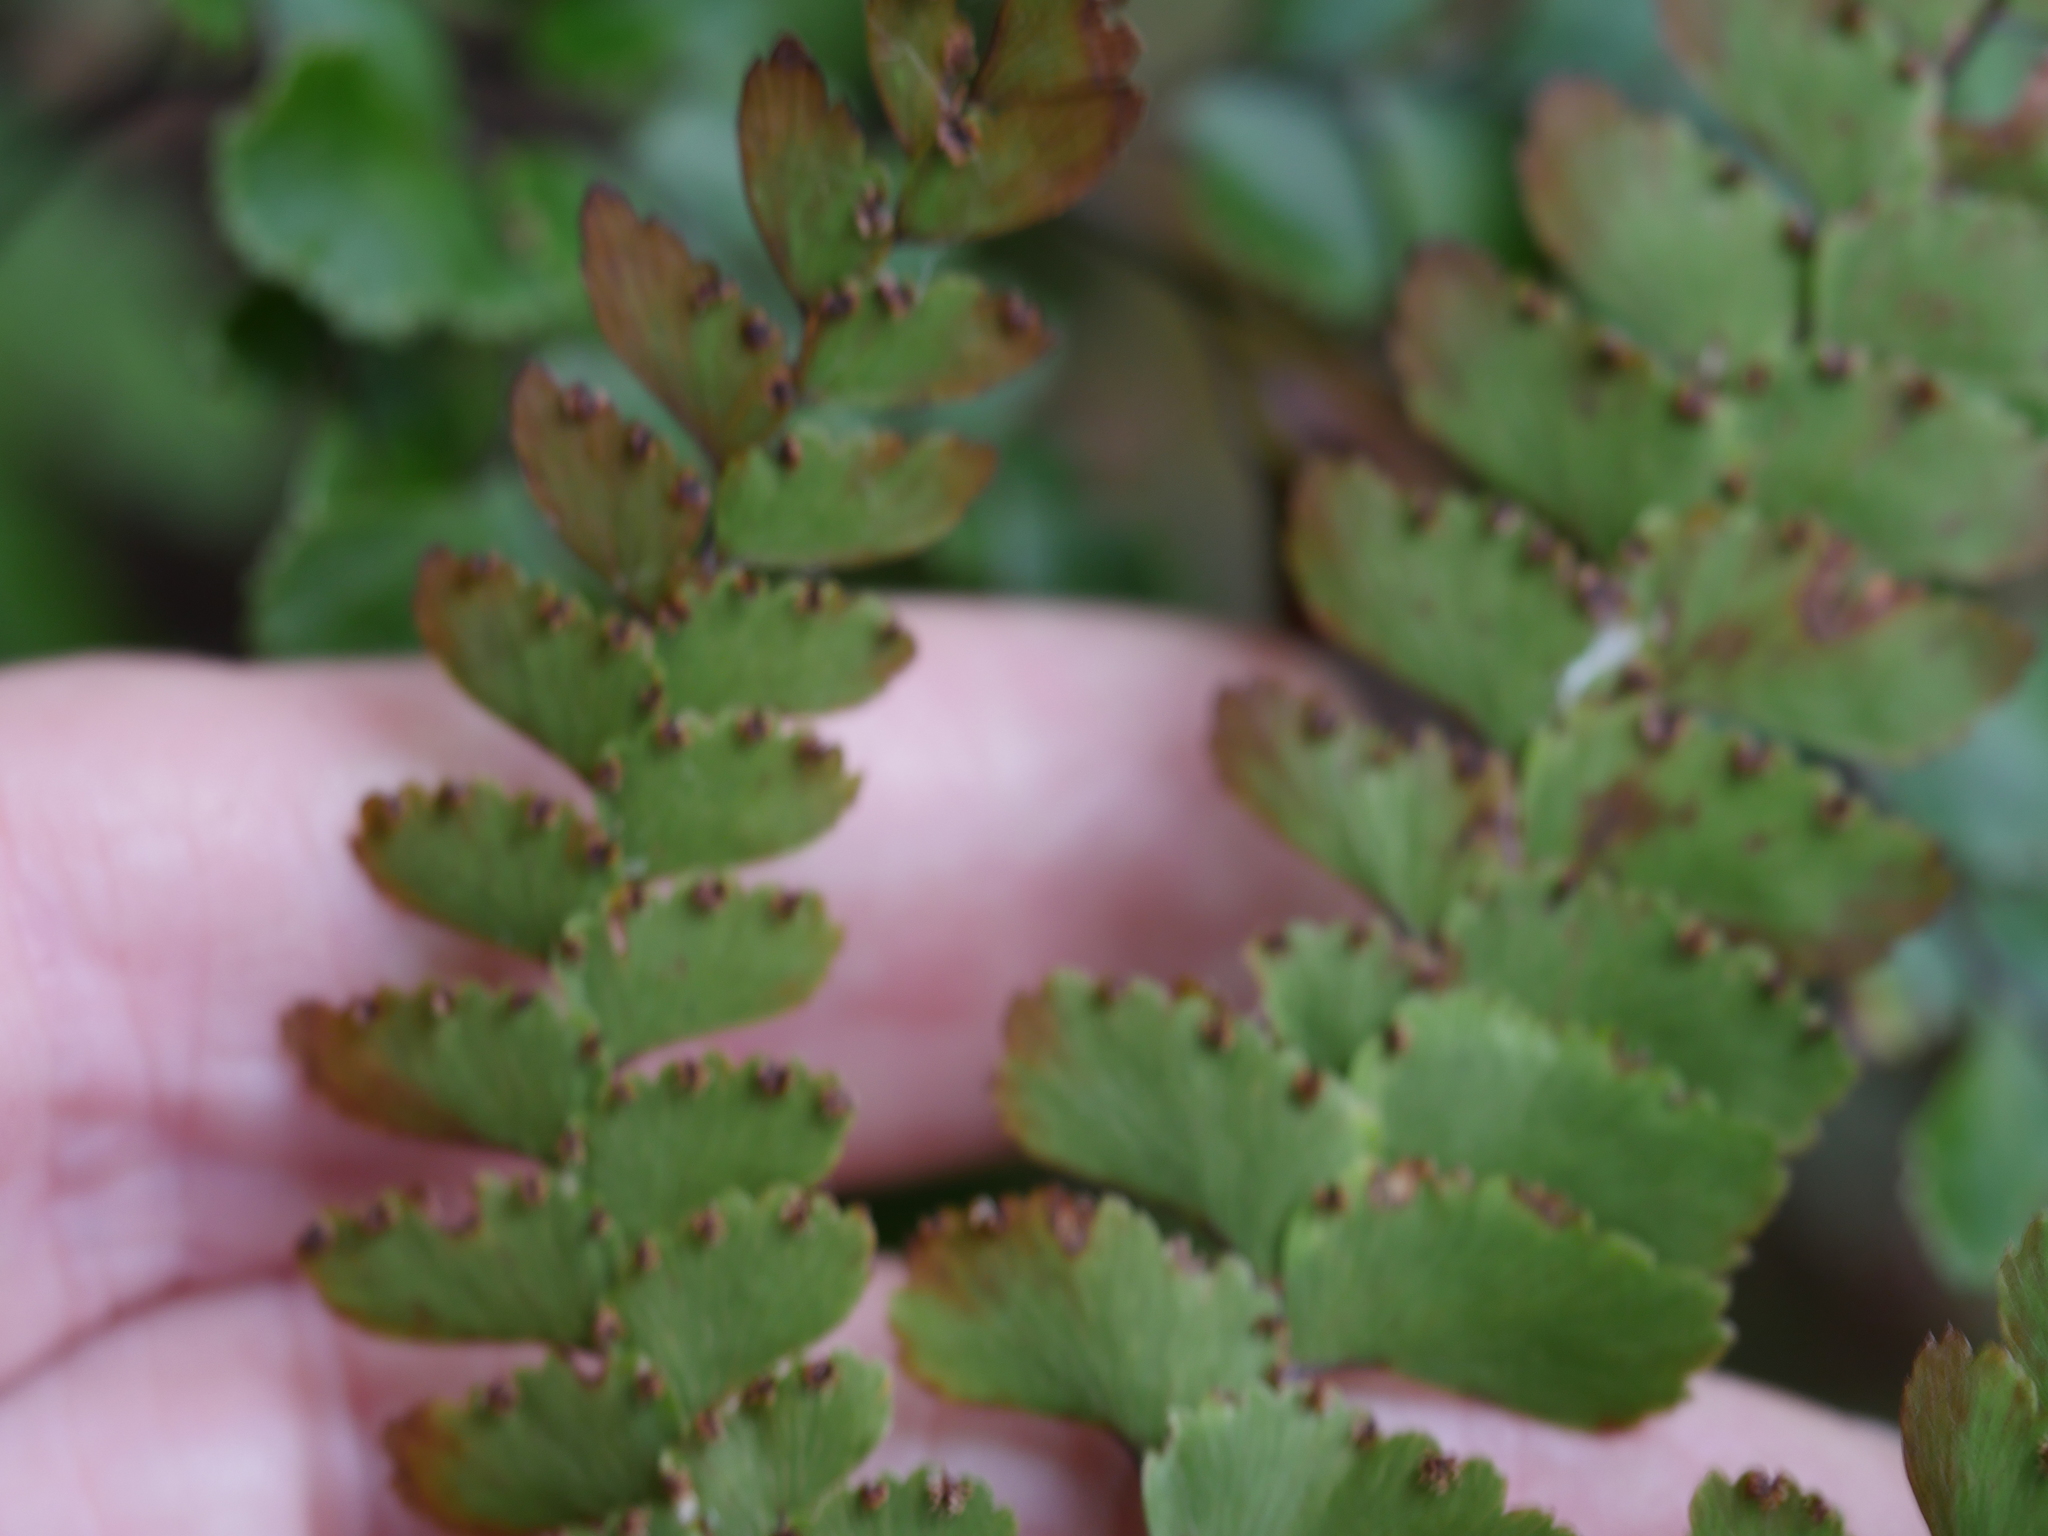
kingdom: Plantae
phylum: Tracheophyta
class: Polypodiopsida
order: Polypodiales
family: Pteridaceae
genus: Adiantum
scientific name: Adiantum cunninghamii
